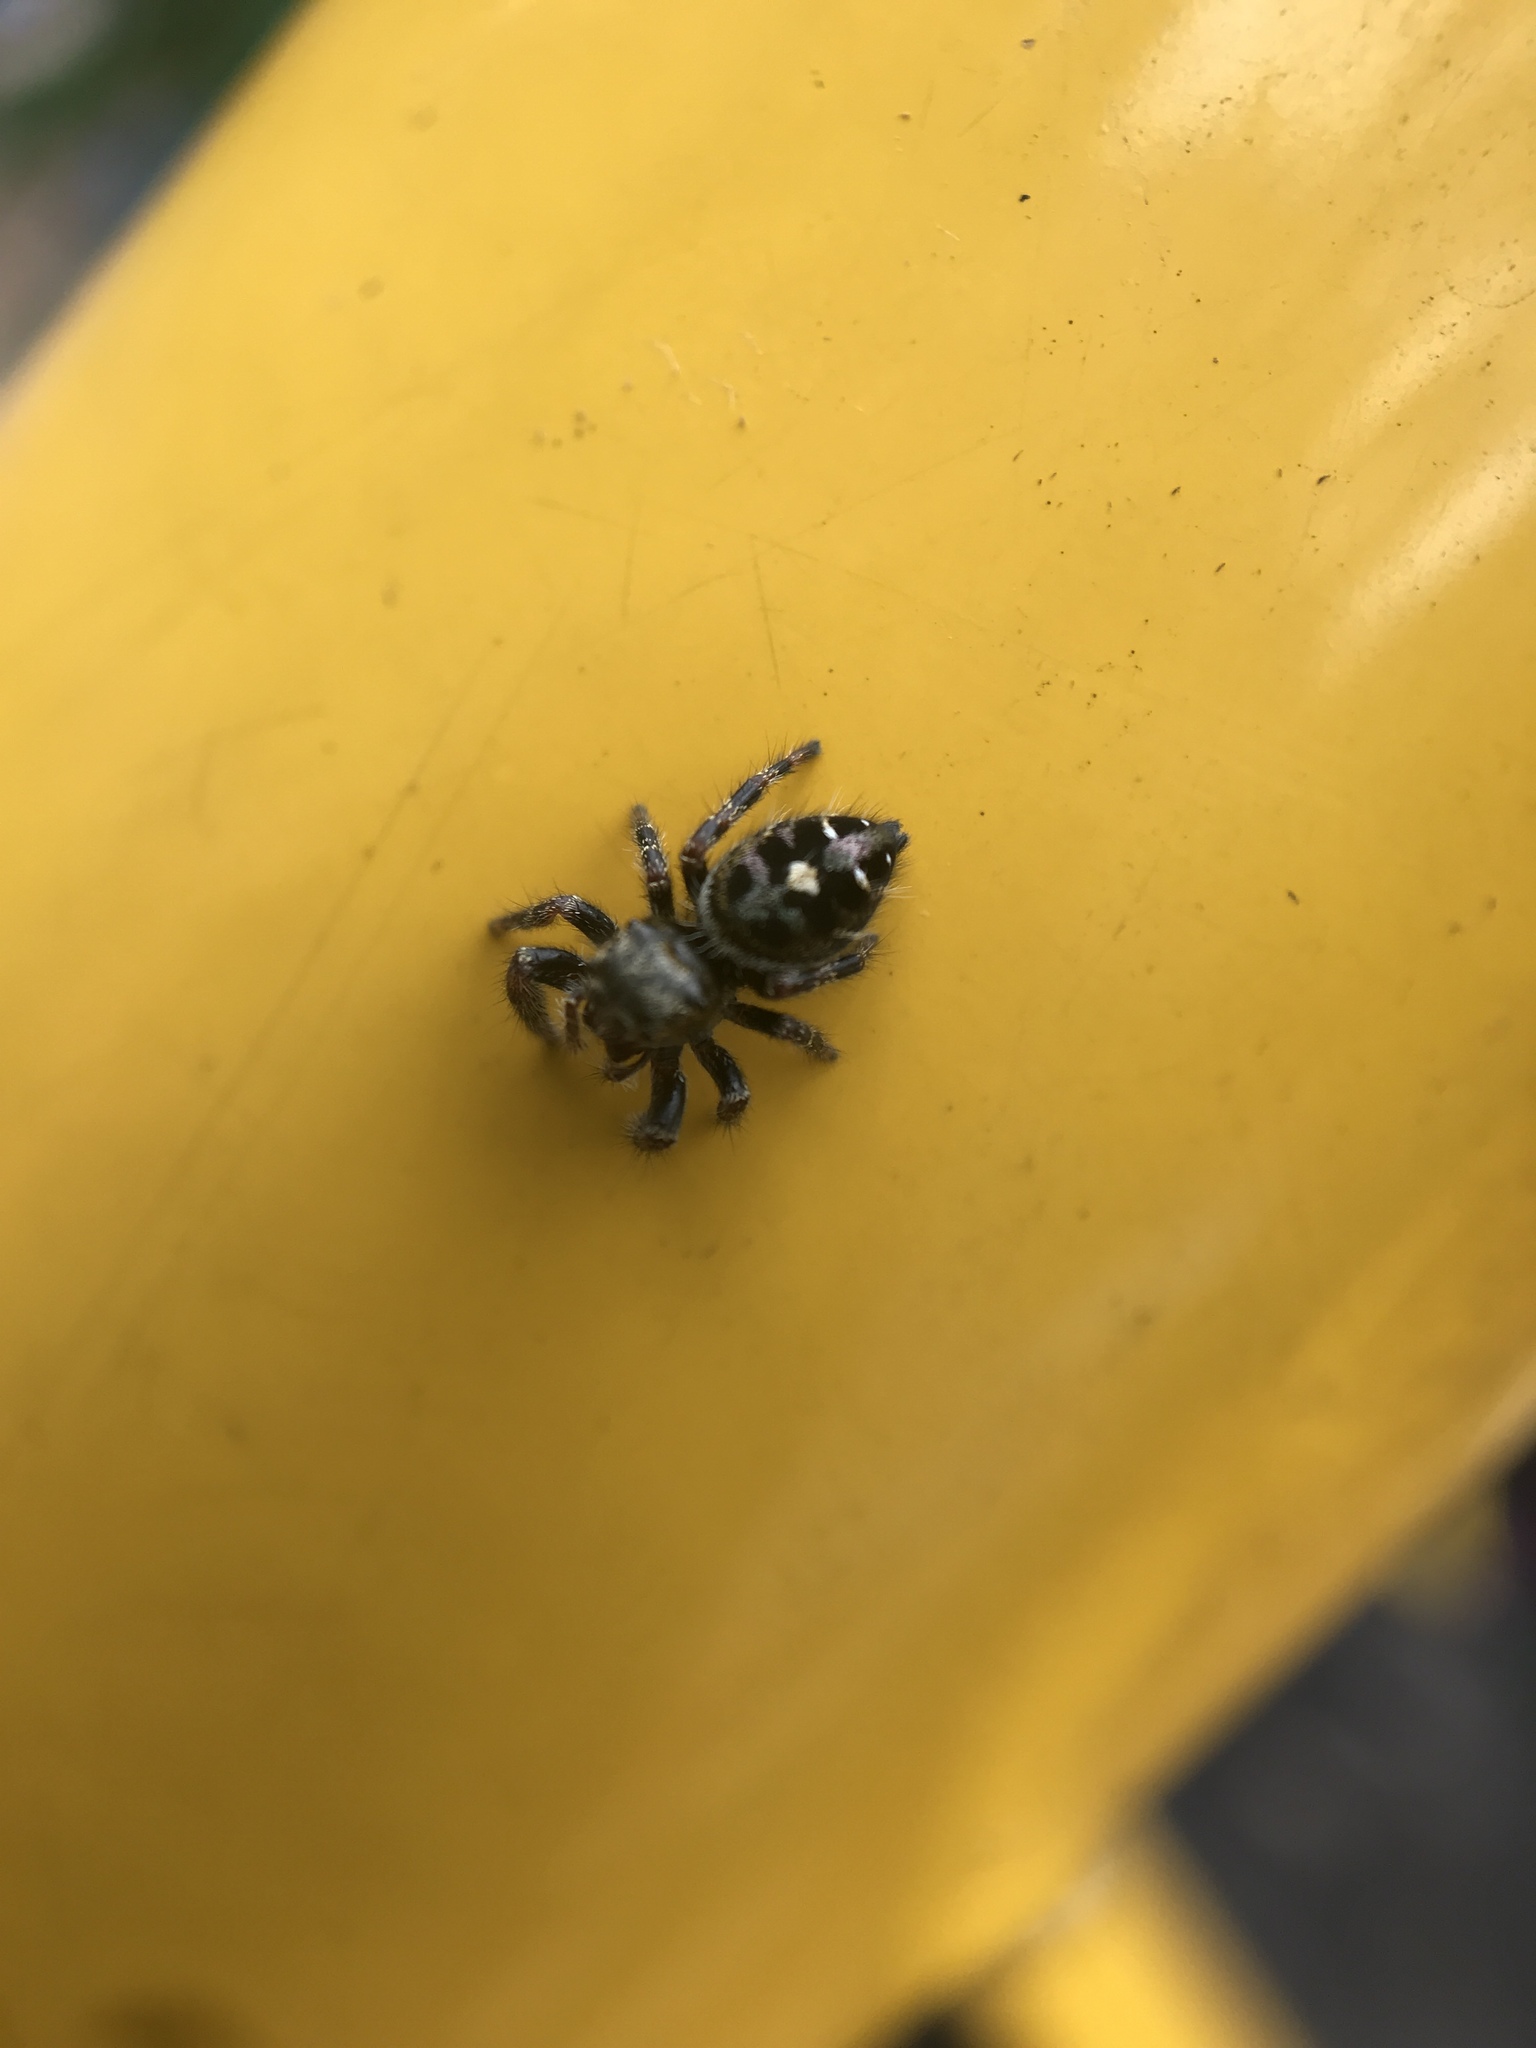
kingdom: Animalia
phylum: Arthropoda
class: Arachnida
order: Araneae
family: Salticidae
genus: Phidippus
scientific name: Phidippus audax
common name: Bold jumper
